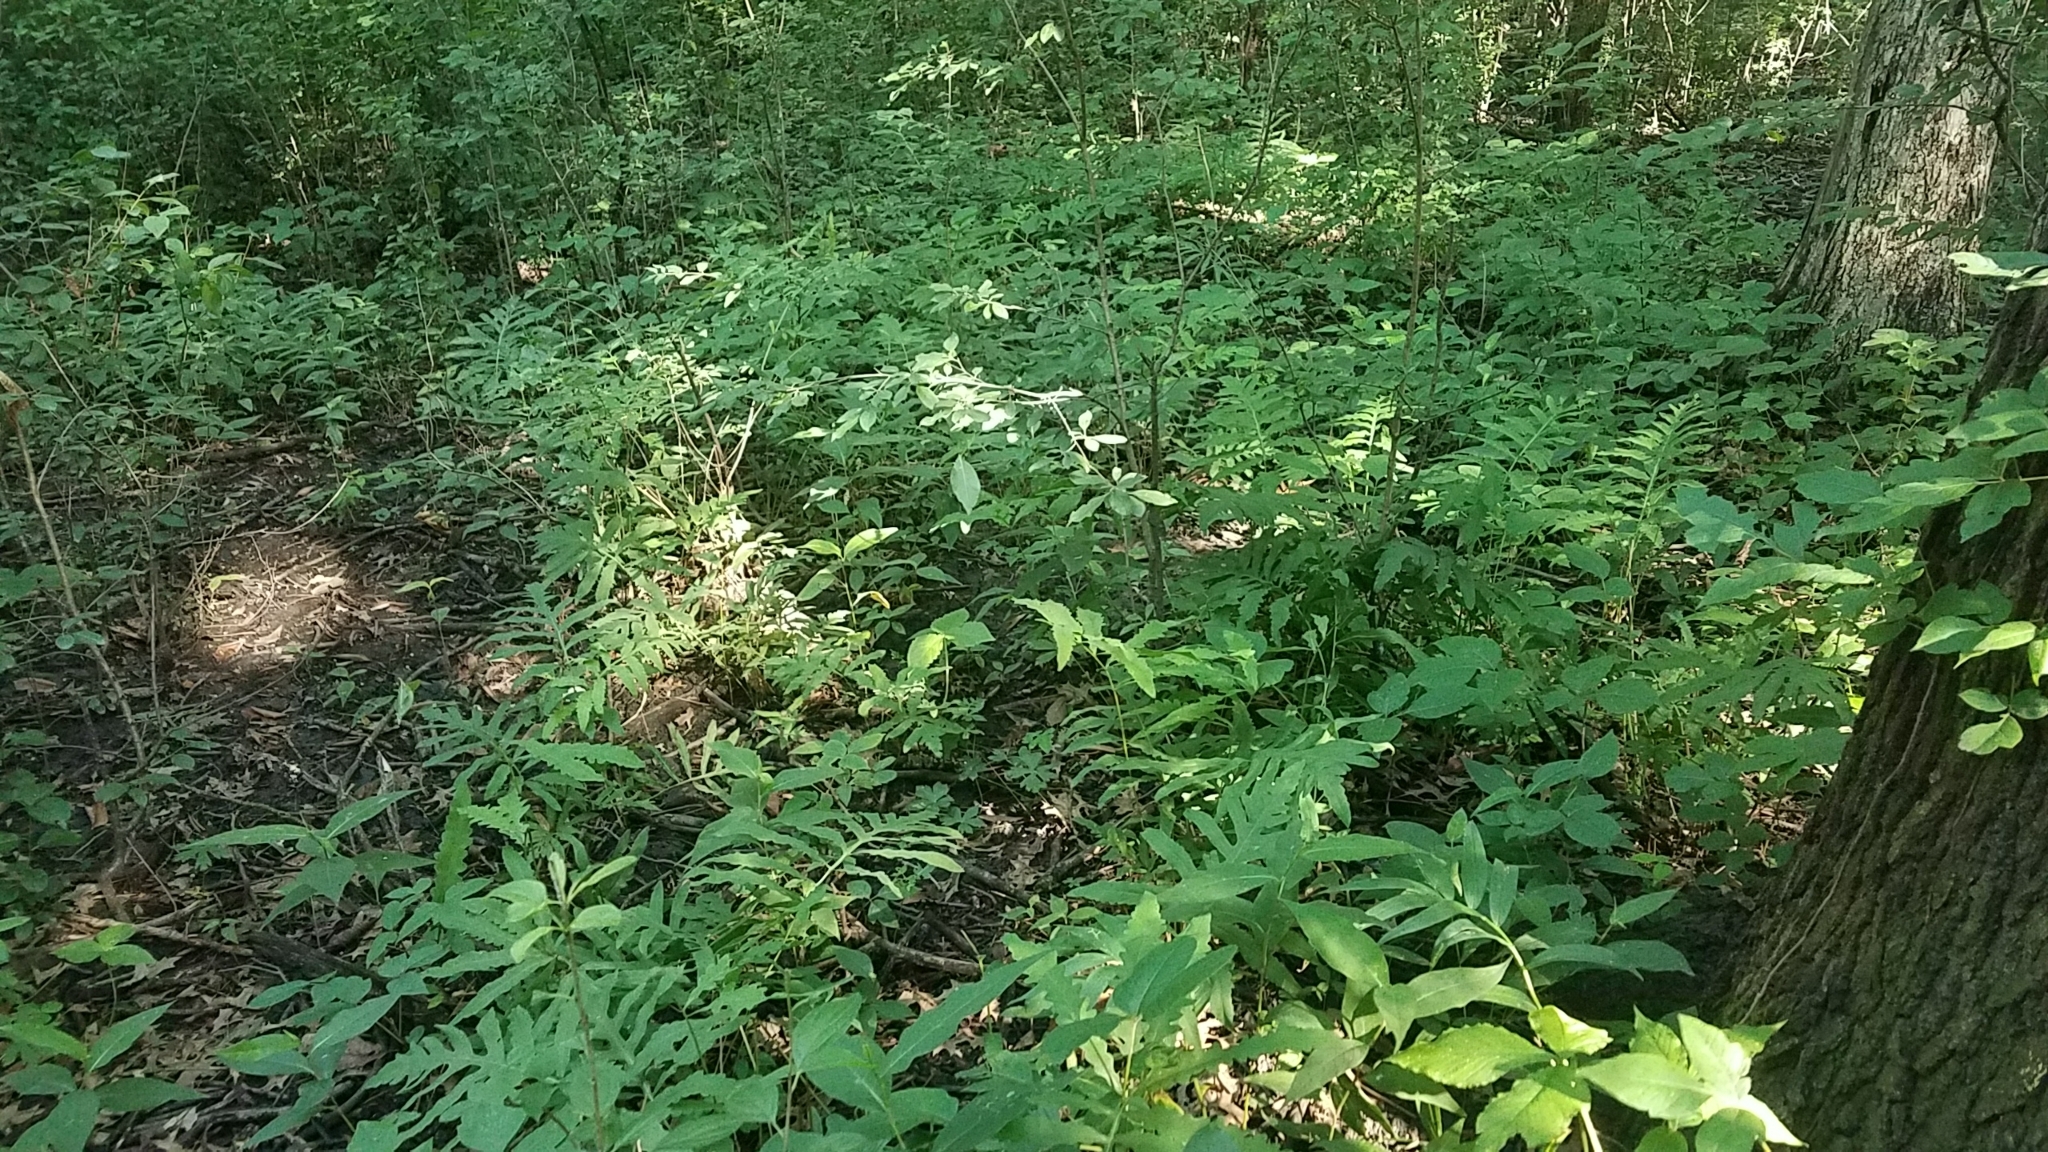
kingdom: Plantae
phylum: Tracheophyta
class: Polypodiopsida
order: Polypodiales
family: Onocleaceae
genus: Onoclea
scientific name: Onoclea sensibilis
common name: Sensitive fern
